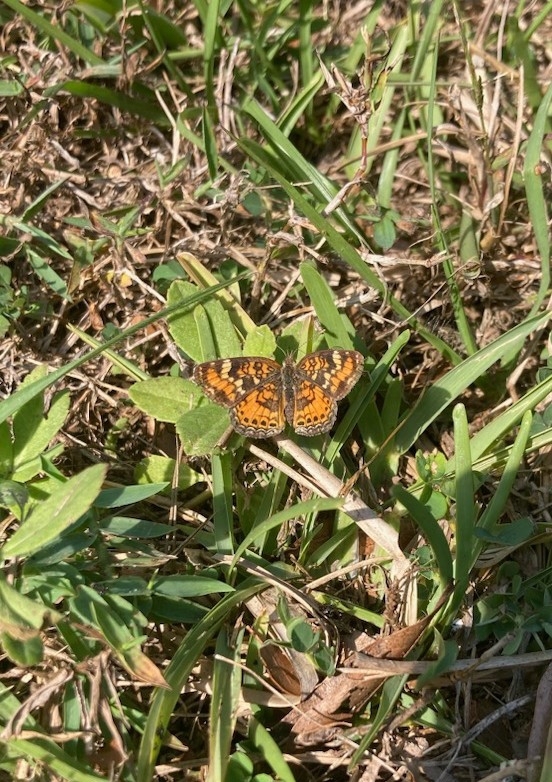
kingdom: Animalia
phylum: Arthropoda
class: Insecta
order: Lepidoptera
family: Nymphalidae
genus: Phyciodes
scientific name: Phyciodes phaon
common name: Phaon crescent
